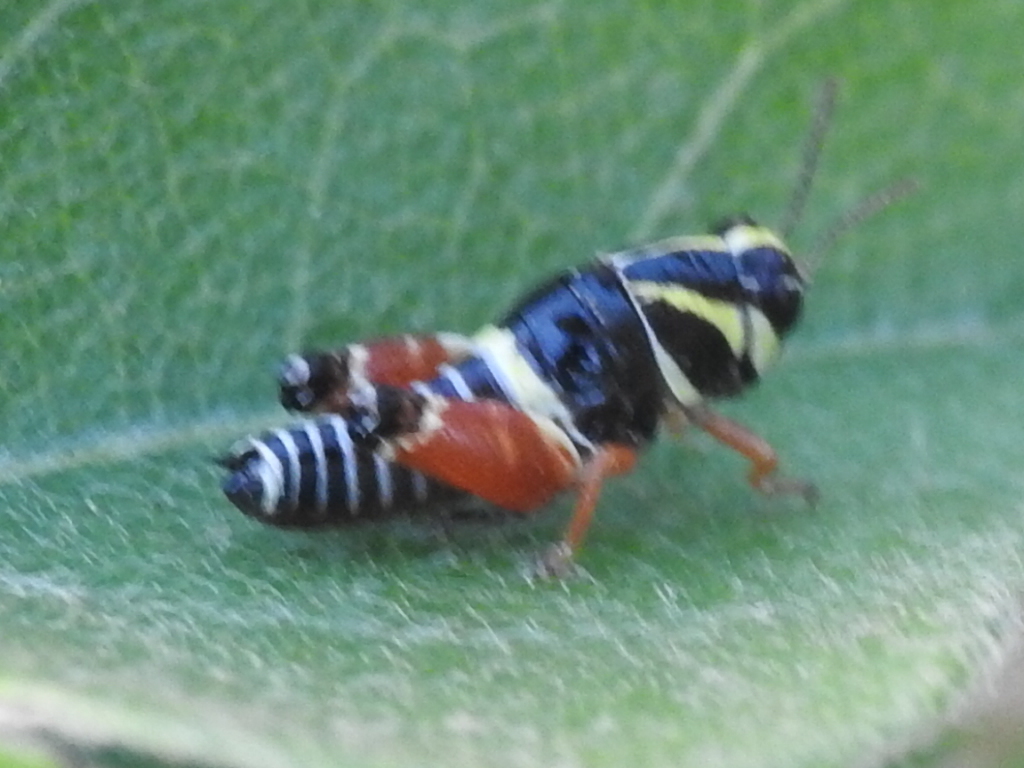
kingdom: Animalia
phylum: Arthropoda
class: Insecta
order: Orthoptera
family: Acrididae
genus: Aidemona
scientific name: Aidemona azteca
